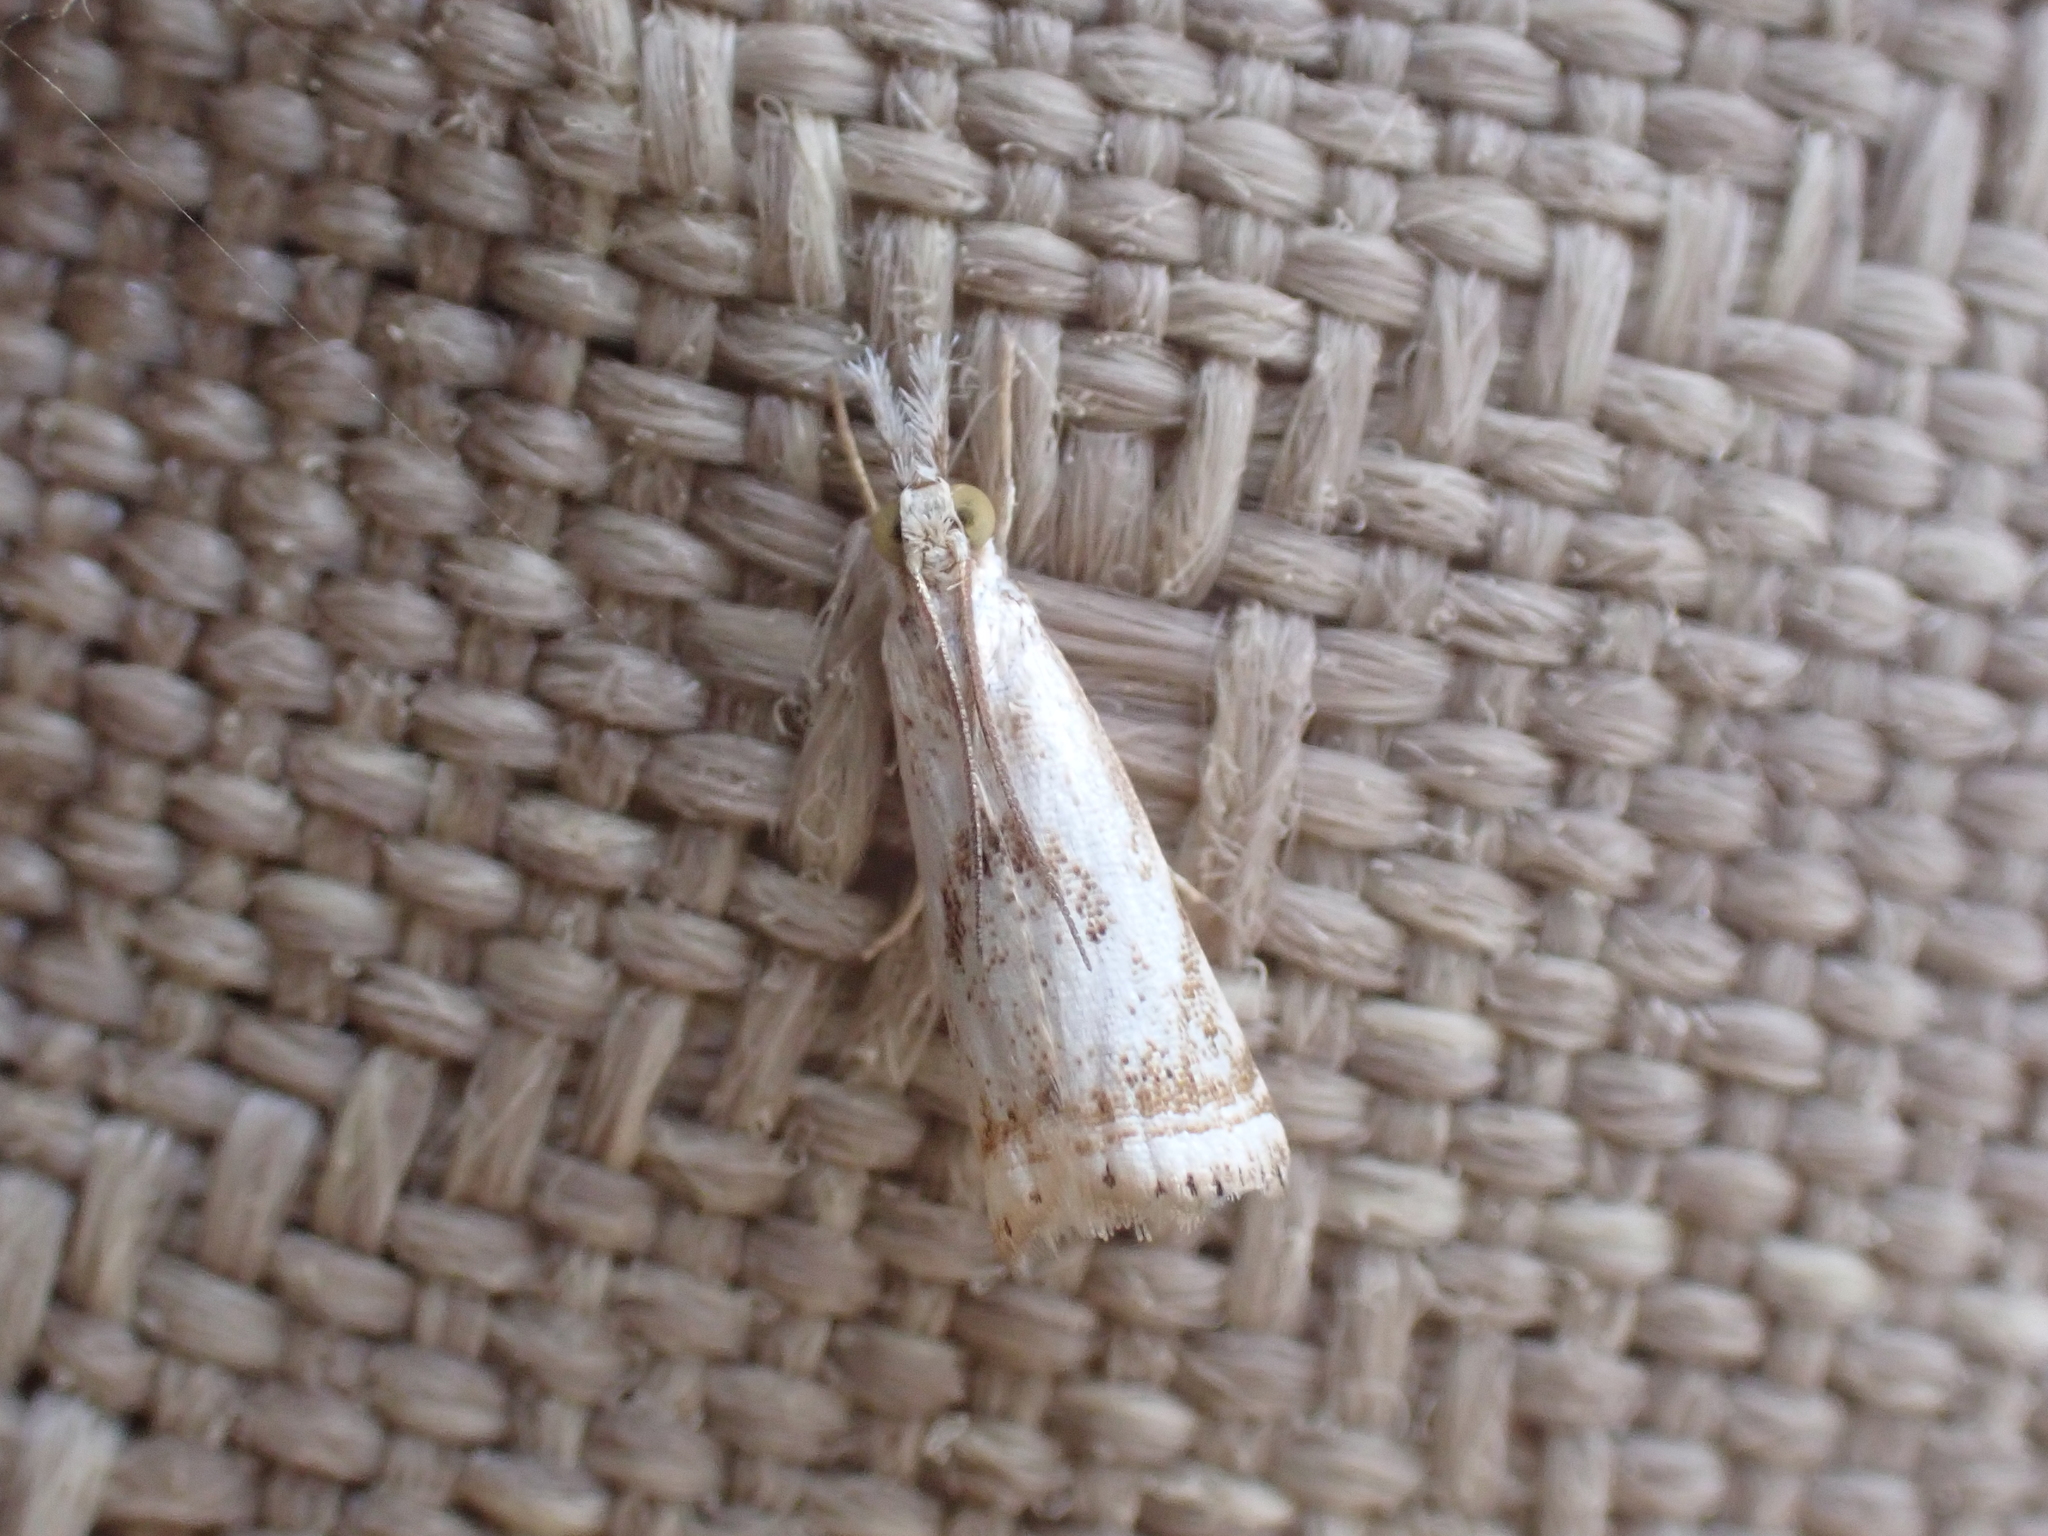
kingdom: Animalia
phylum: Arthropoda
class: Insecta
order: Lepidoptera
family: Crambidae
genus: Microcrambus
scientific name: Microcrambus elegans
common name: Elegant grass-veneer
